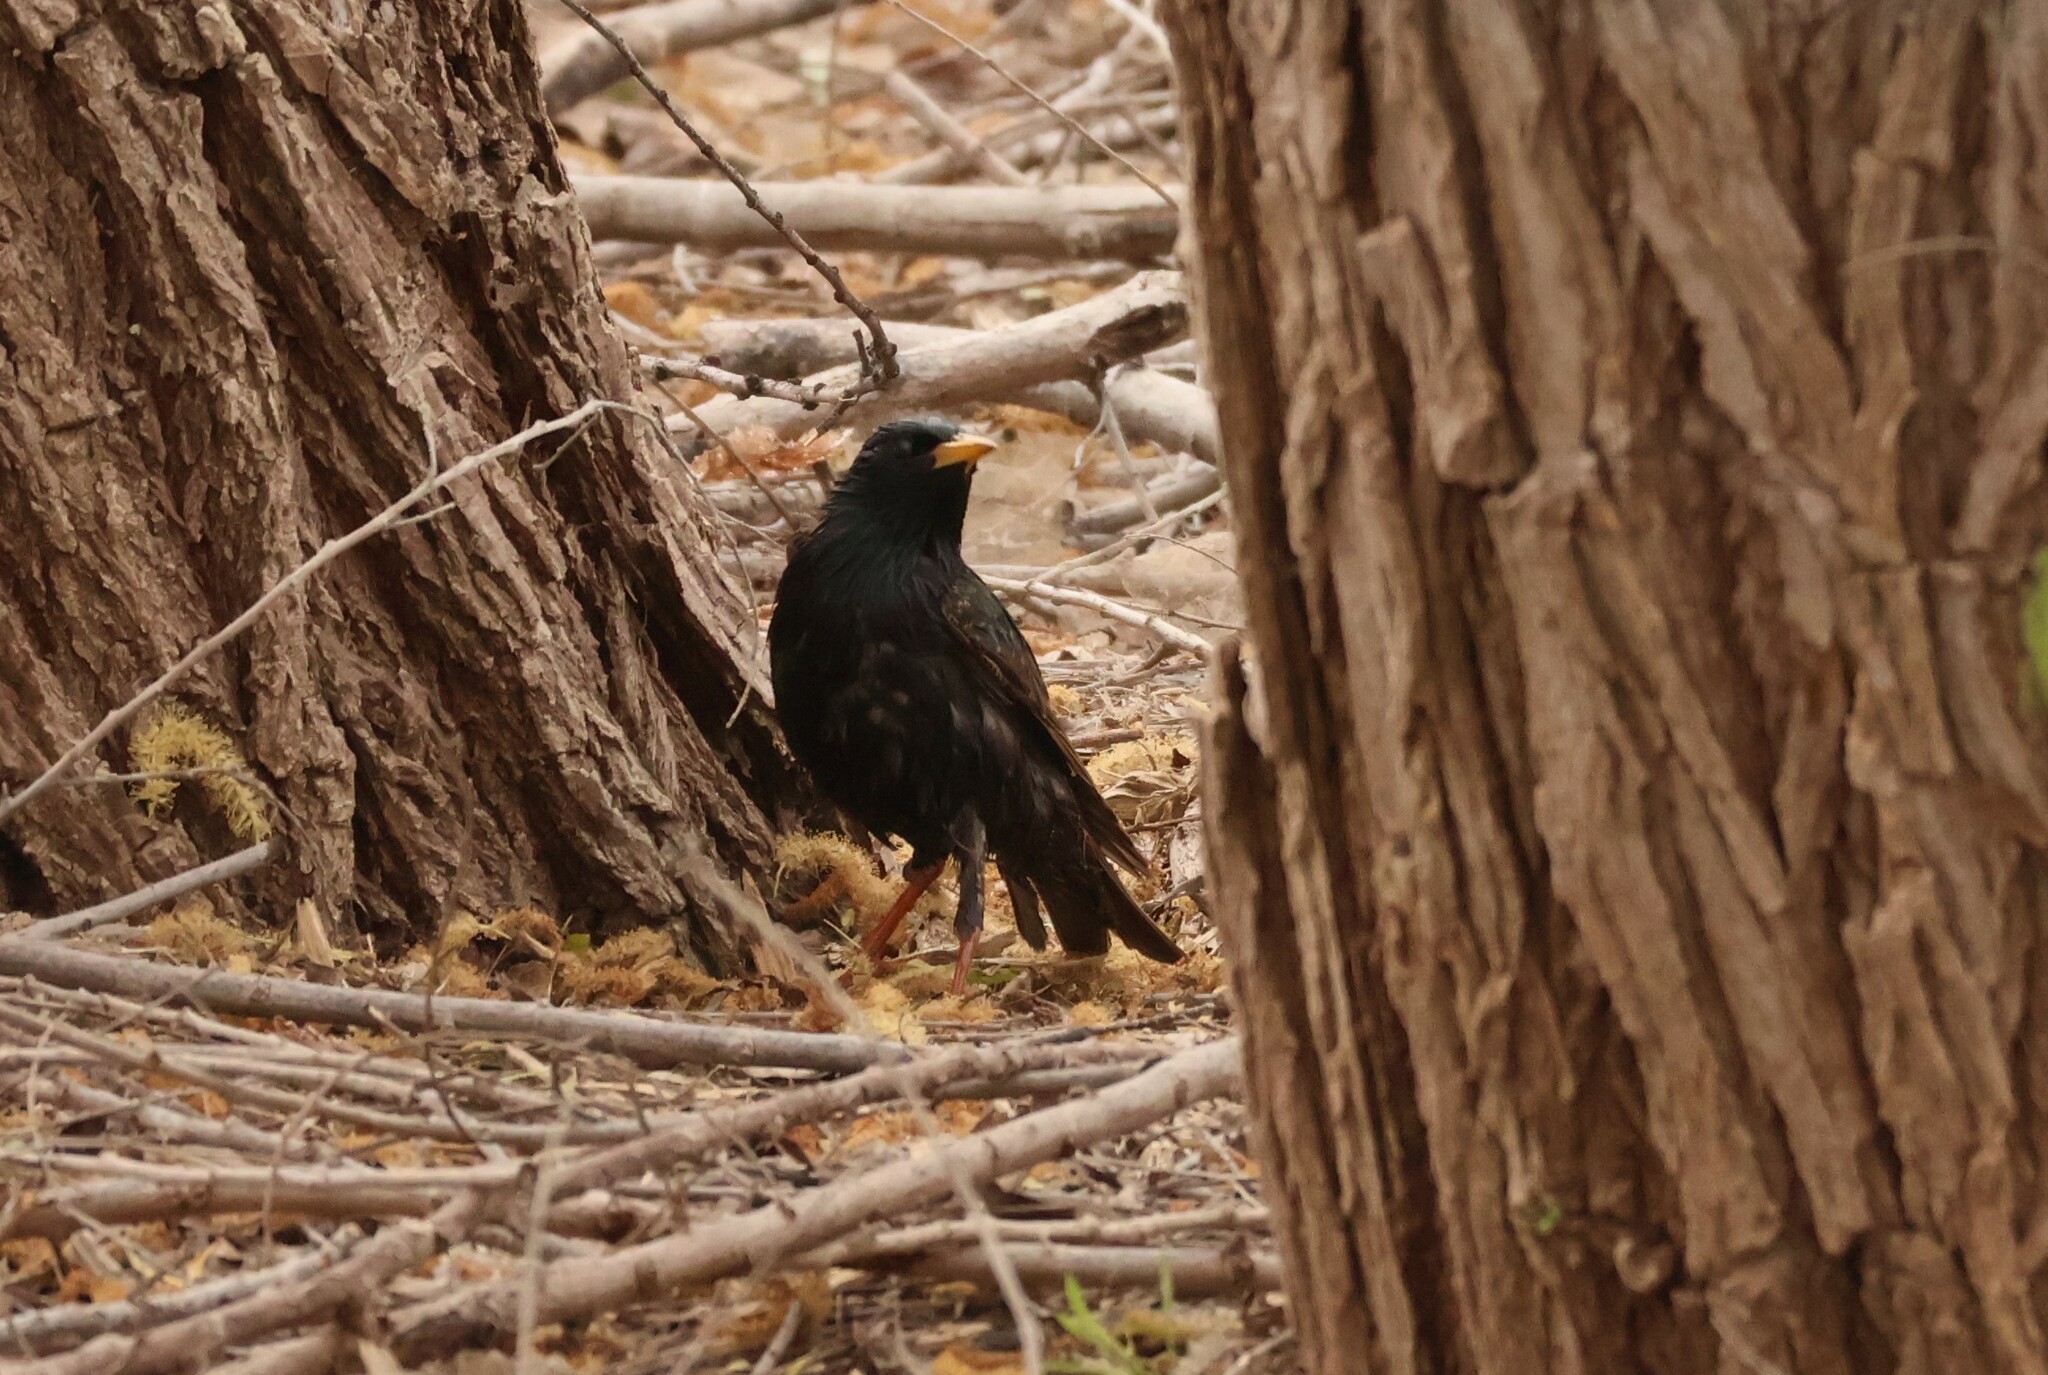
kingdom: Animalia
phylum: Chordata
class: Aves
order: Passeriformes
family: Sturnidae
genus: Sturnus
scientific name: Sturnus vulgaris
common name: Common starling
